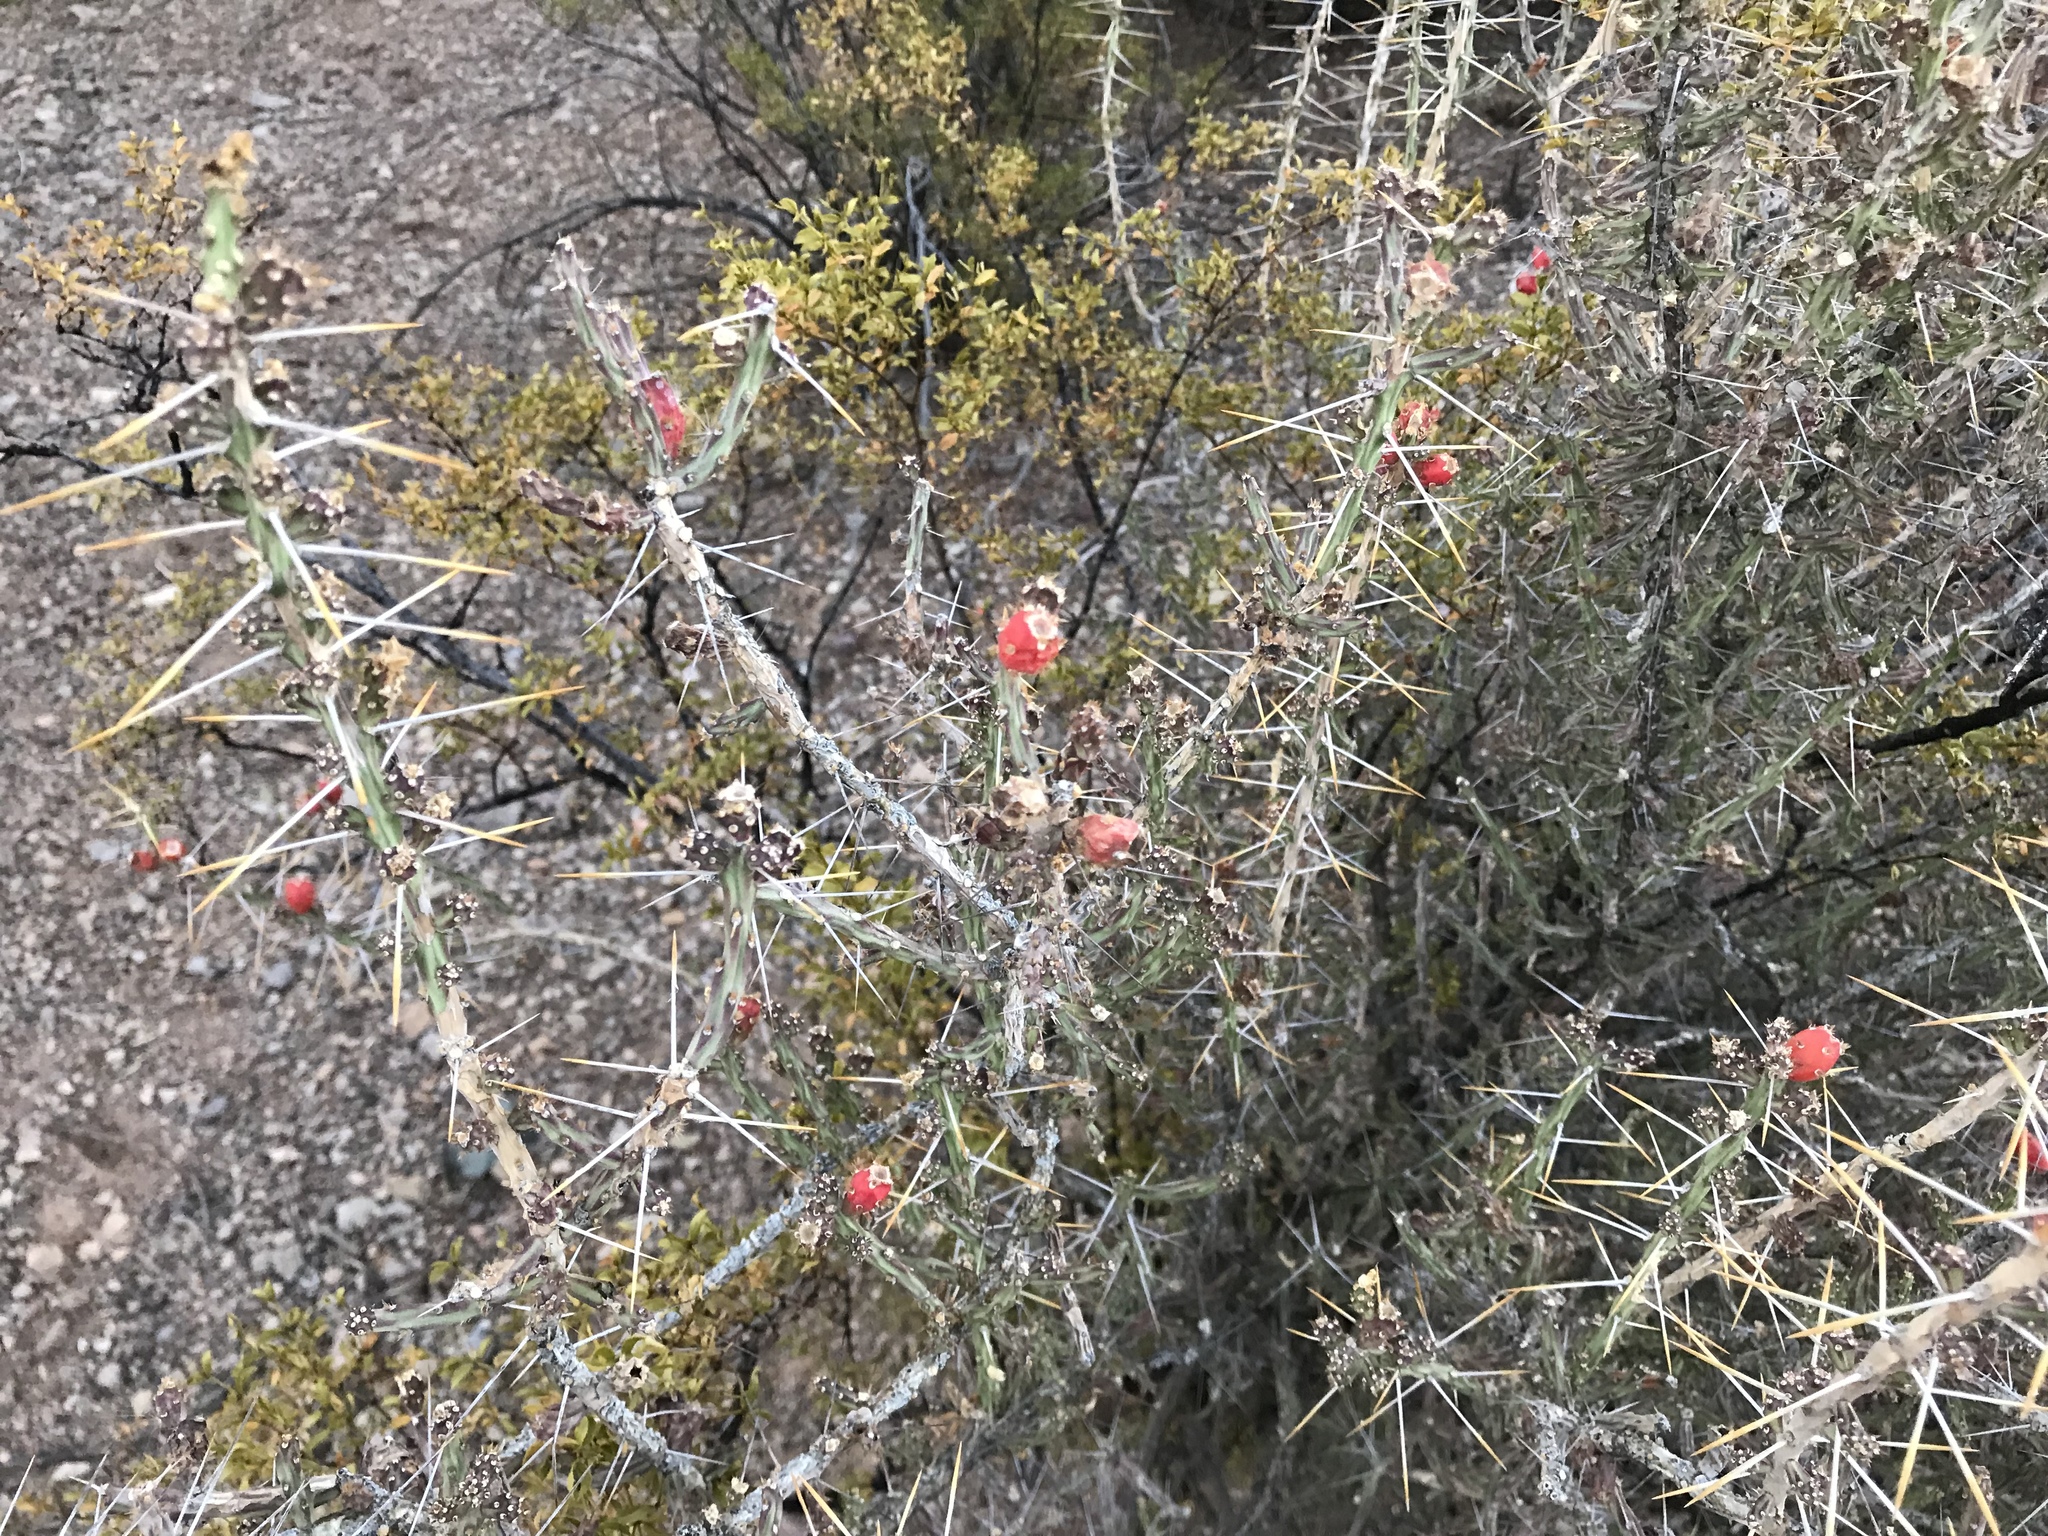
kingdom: Plantae
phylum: Tracheophyta
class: Magnoliopsida
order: Caryophyllales
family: Cactaceae
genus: Cylindropuntia
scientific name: Cylindropuntia leptocaulis
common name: Christmas cactus
